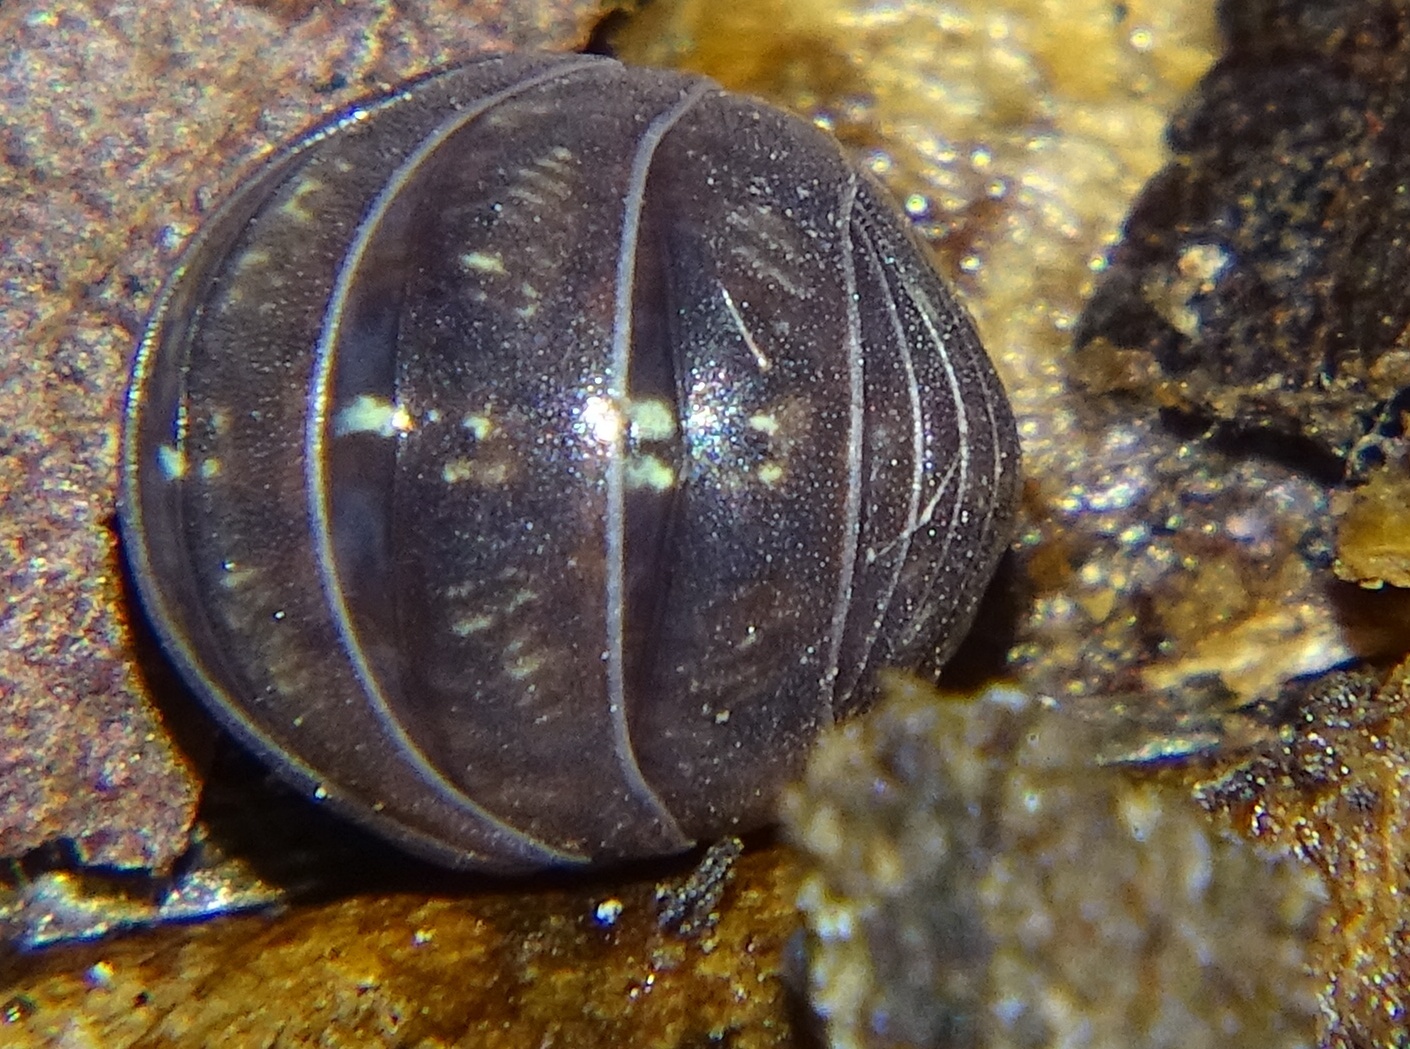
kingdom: Animalia
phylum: Arthropoda
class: Malacostraca
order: Isopoda
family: Armadillidiidae
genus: Armadillidium
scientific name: Armadillidium vulgare
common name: Common pill woodlouse
